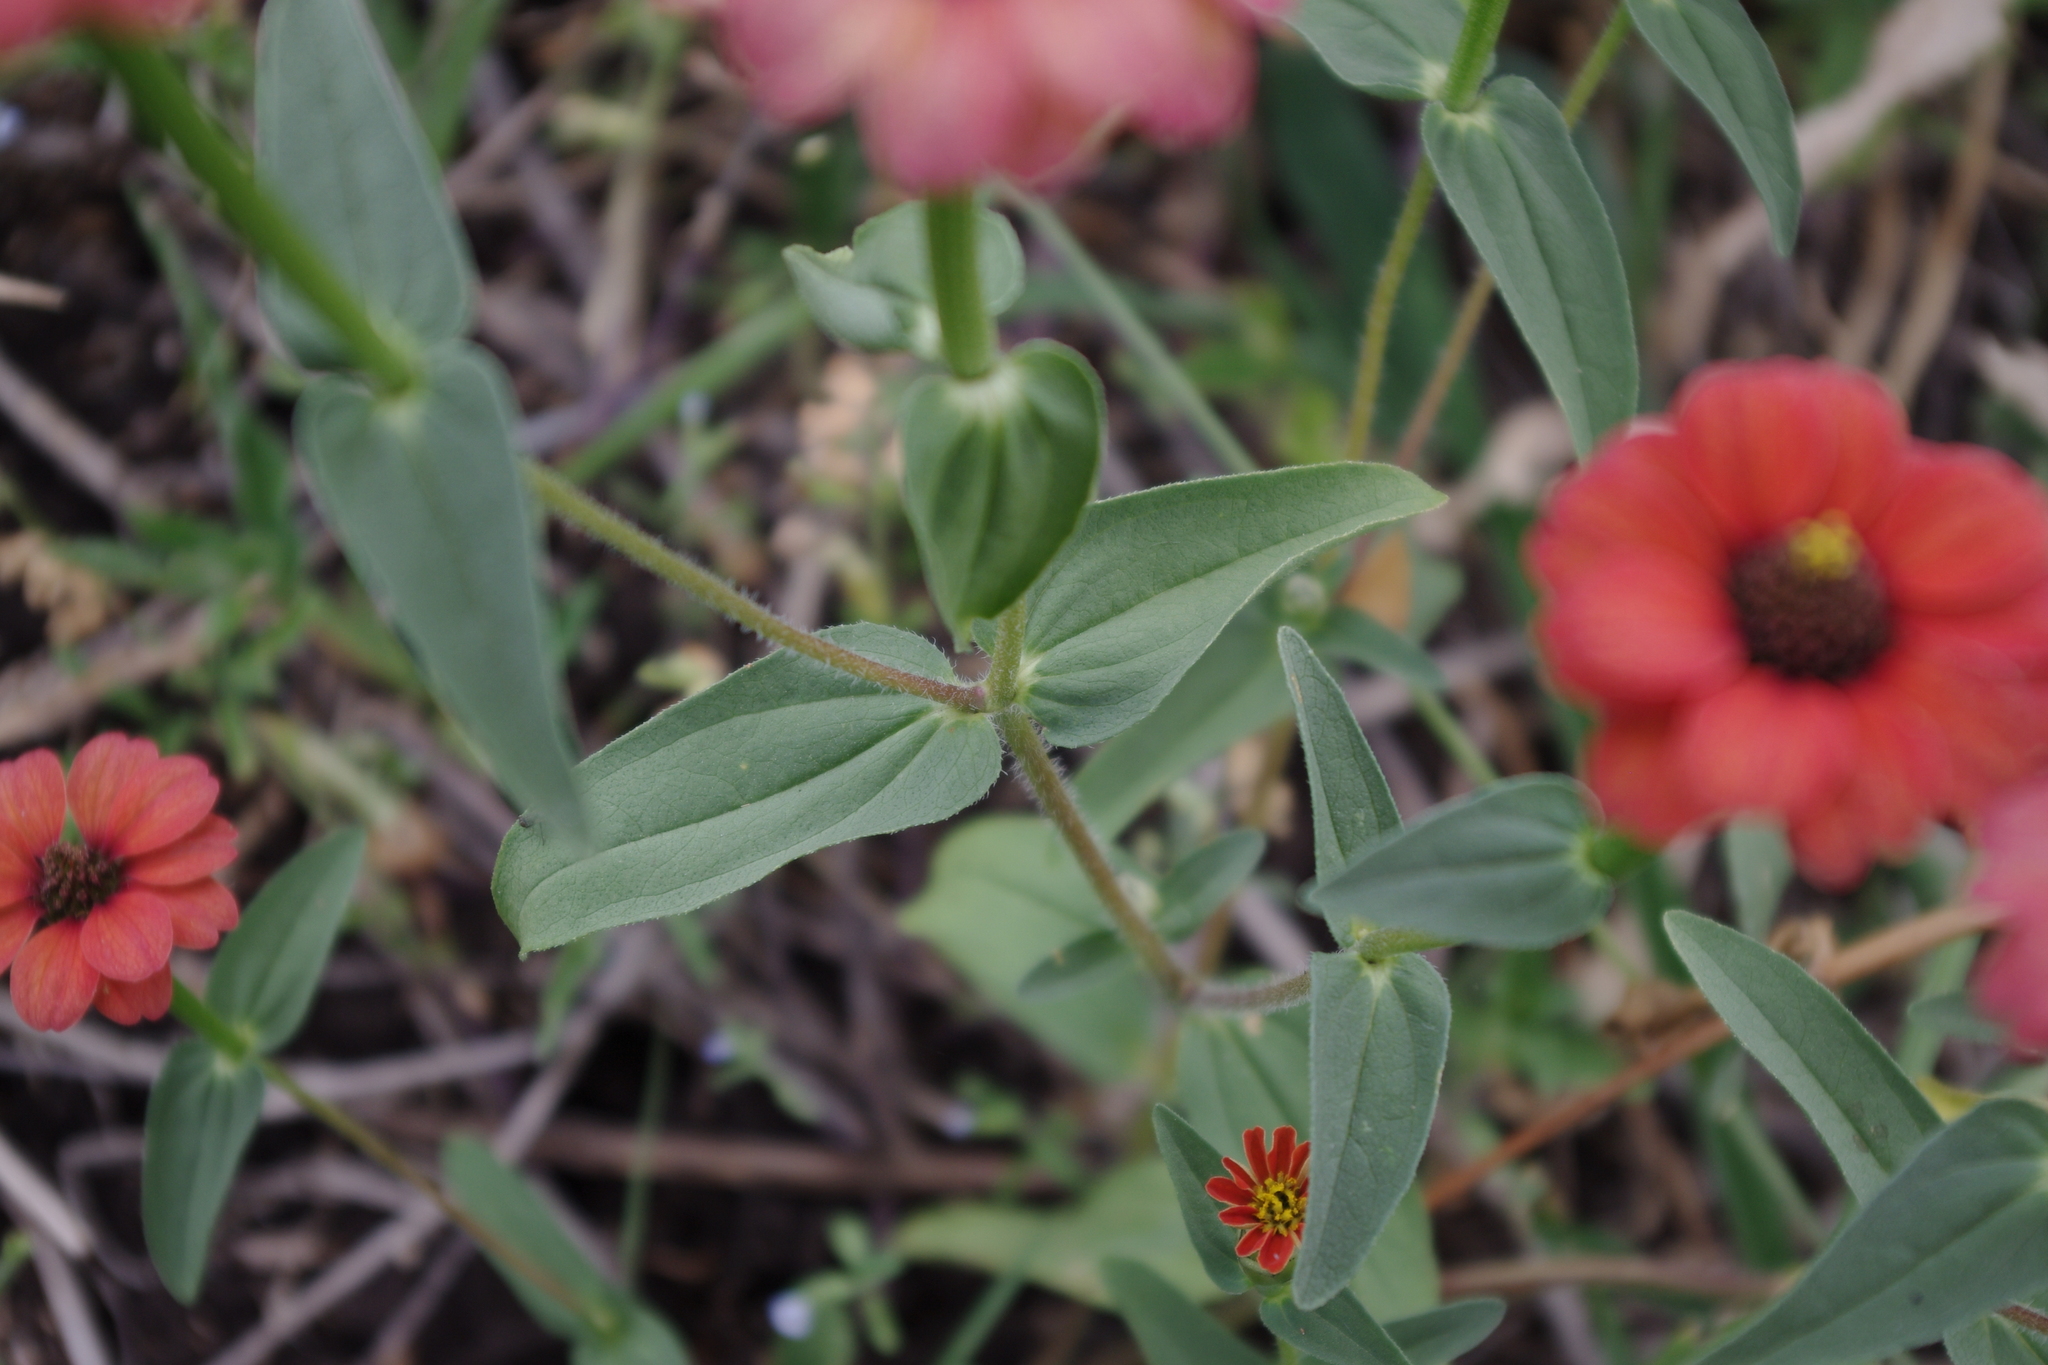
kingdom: Plantae
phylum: Tracheophyta
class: Magnoliopsida
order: Asterales
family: Asteraceae
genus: Zinnia
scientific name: Zinnia peruviana
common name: Peruvian zinnia
